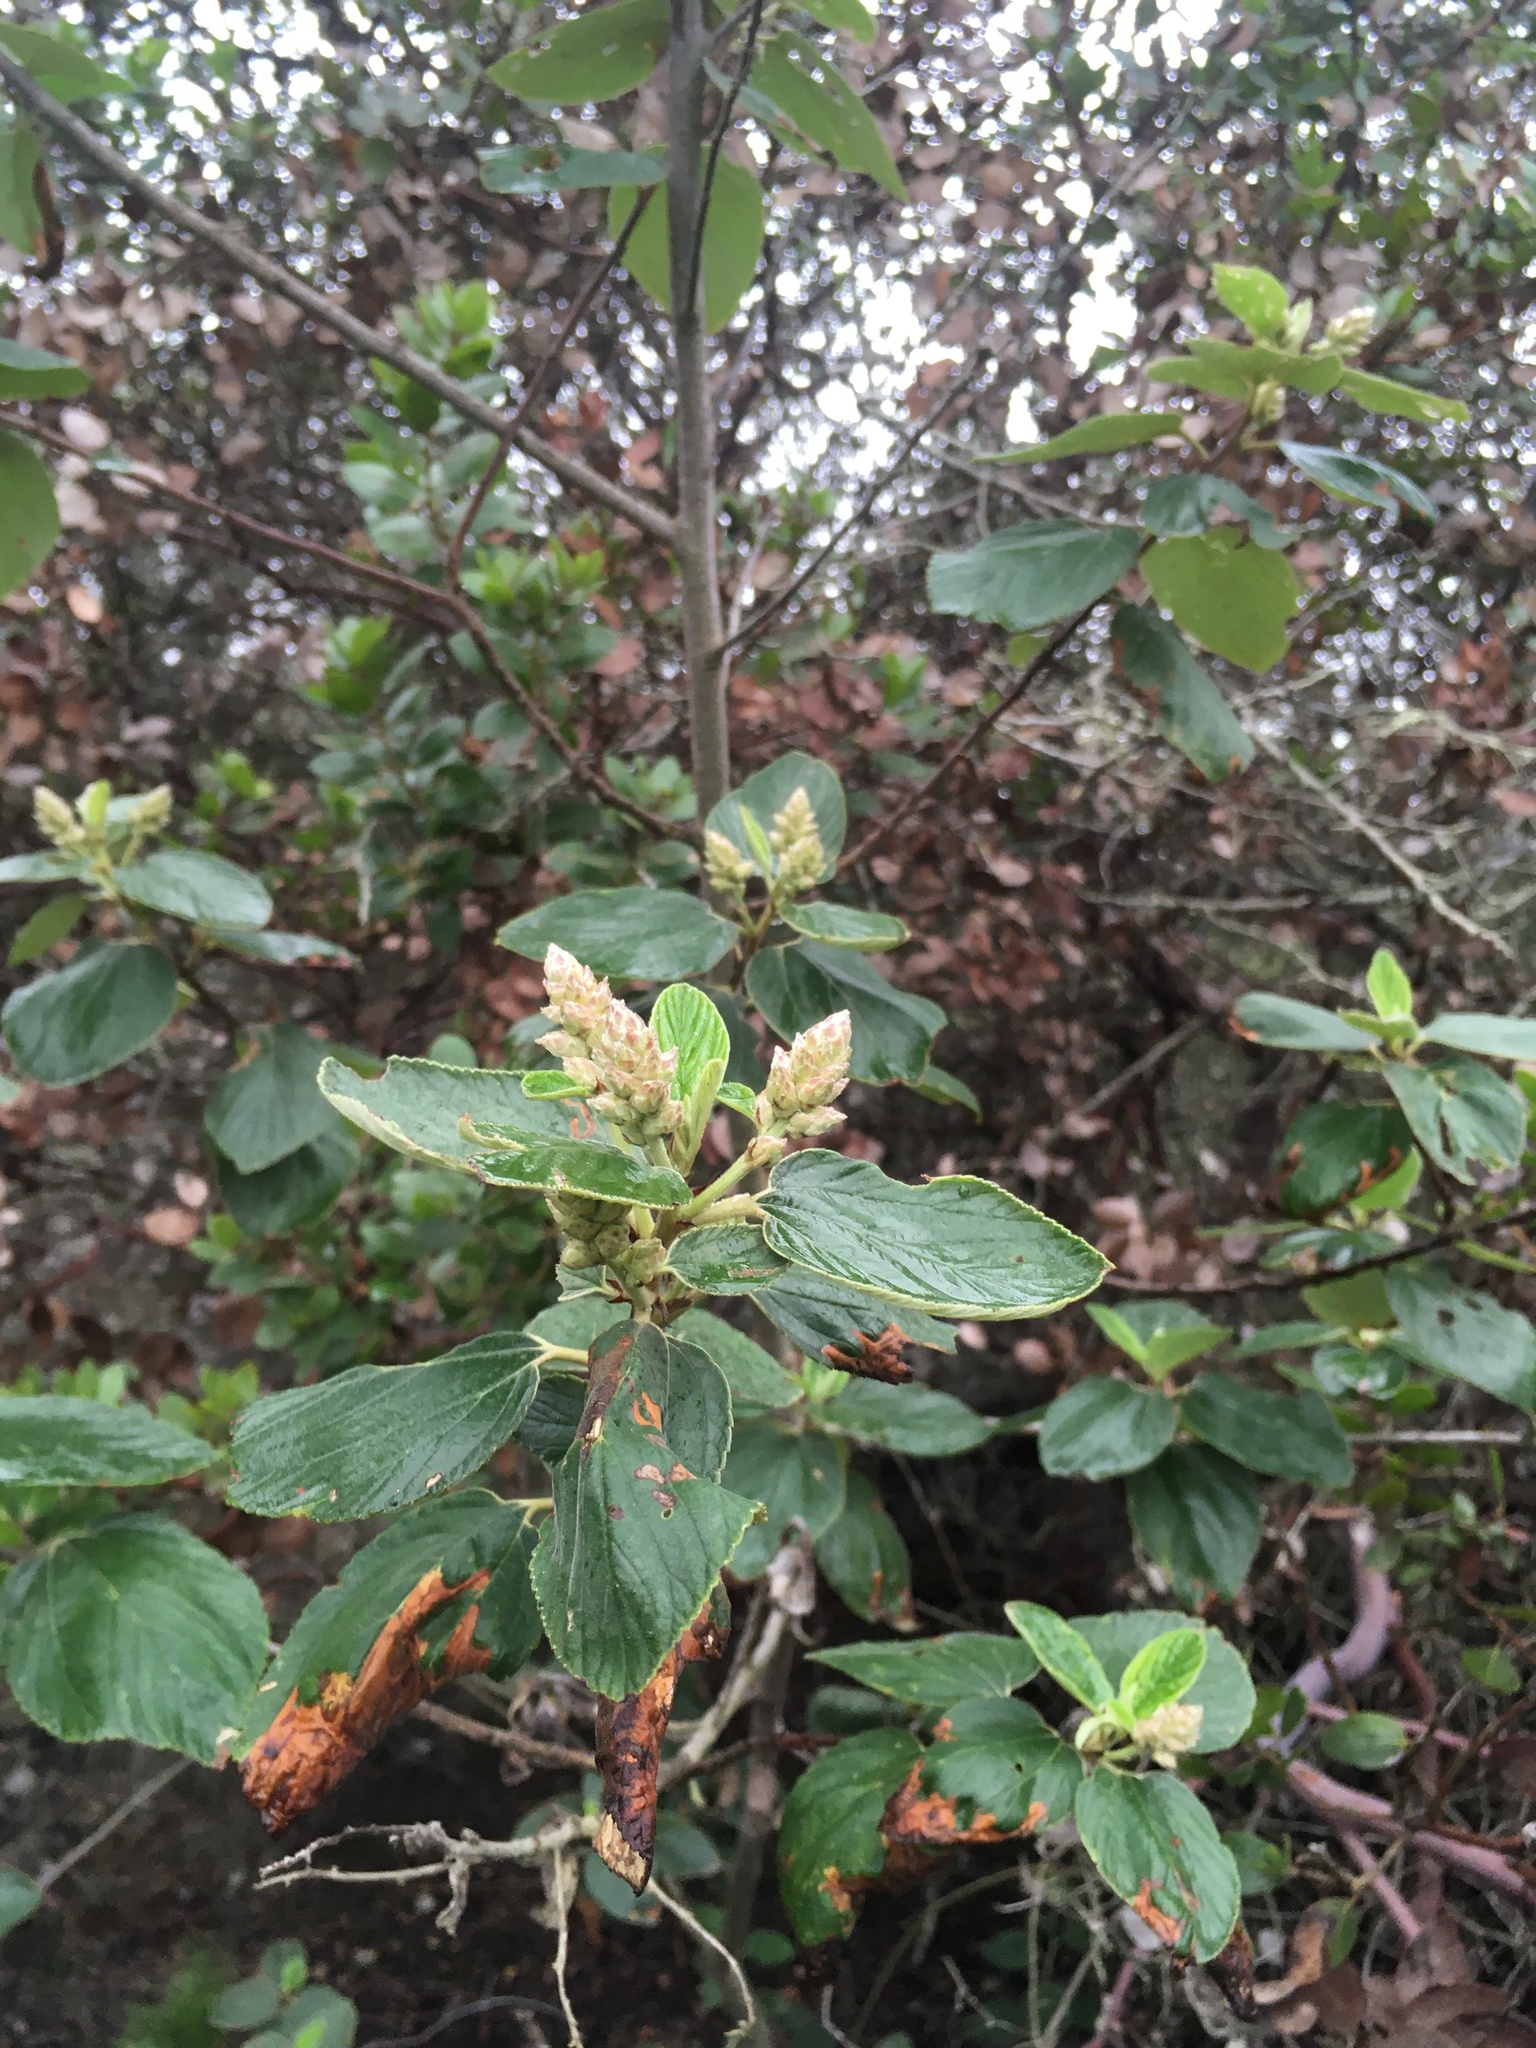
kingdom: Plantae
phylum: Tracheophyta
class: Magnoliopsida
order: Rosales
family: Rhamnaceae
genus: Ceanothus
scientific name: Ceanothus arboreus
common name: Catalina mountain-lilac
